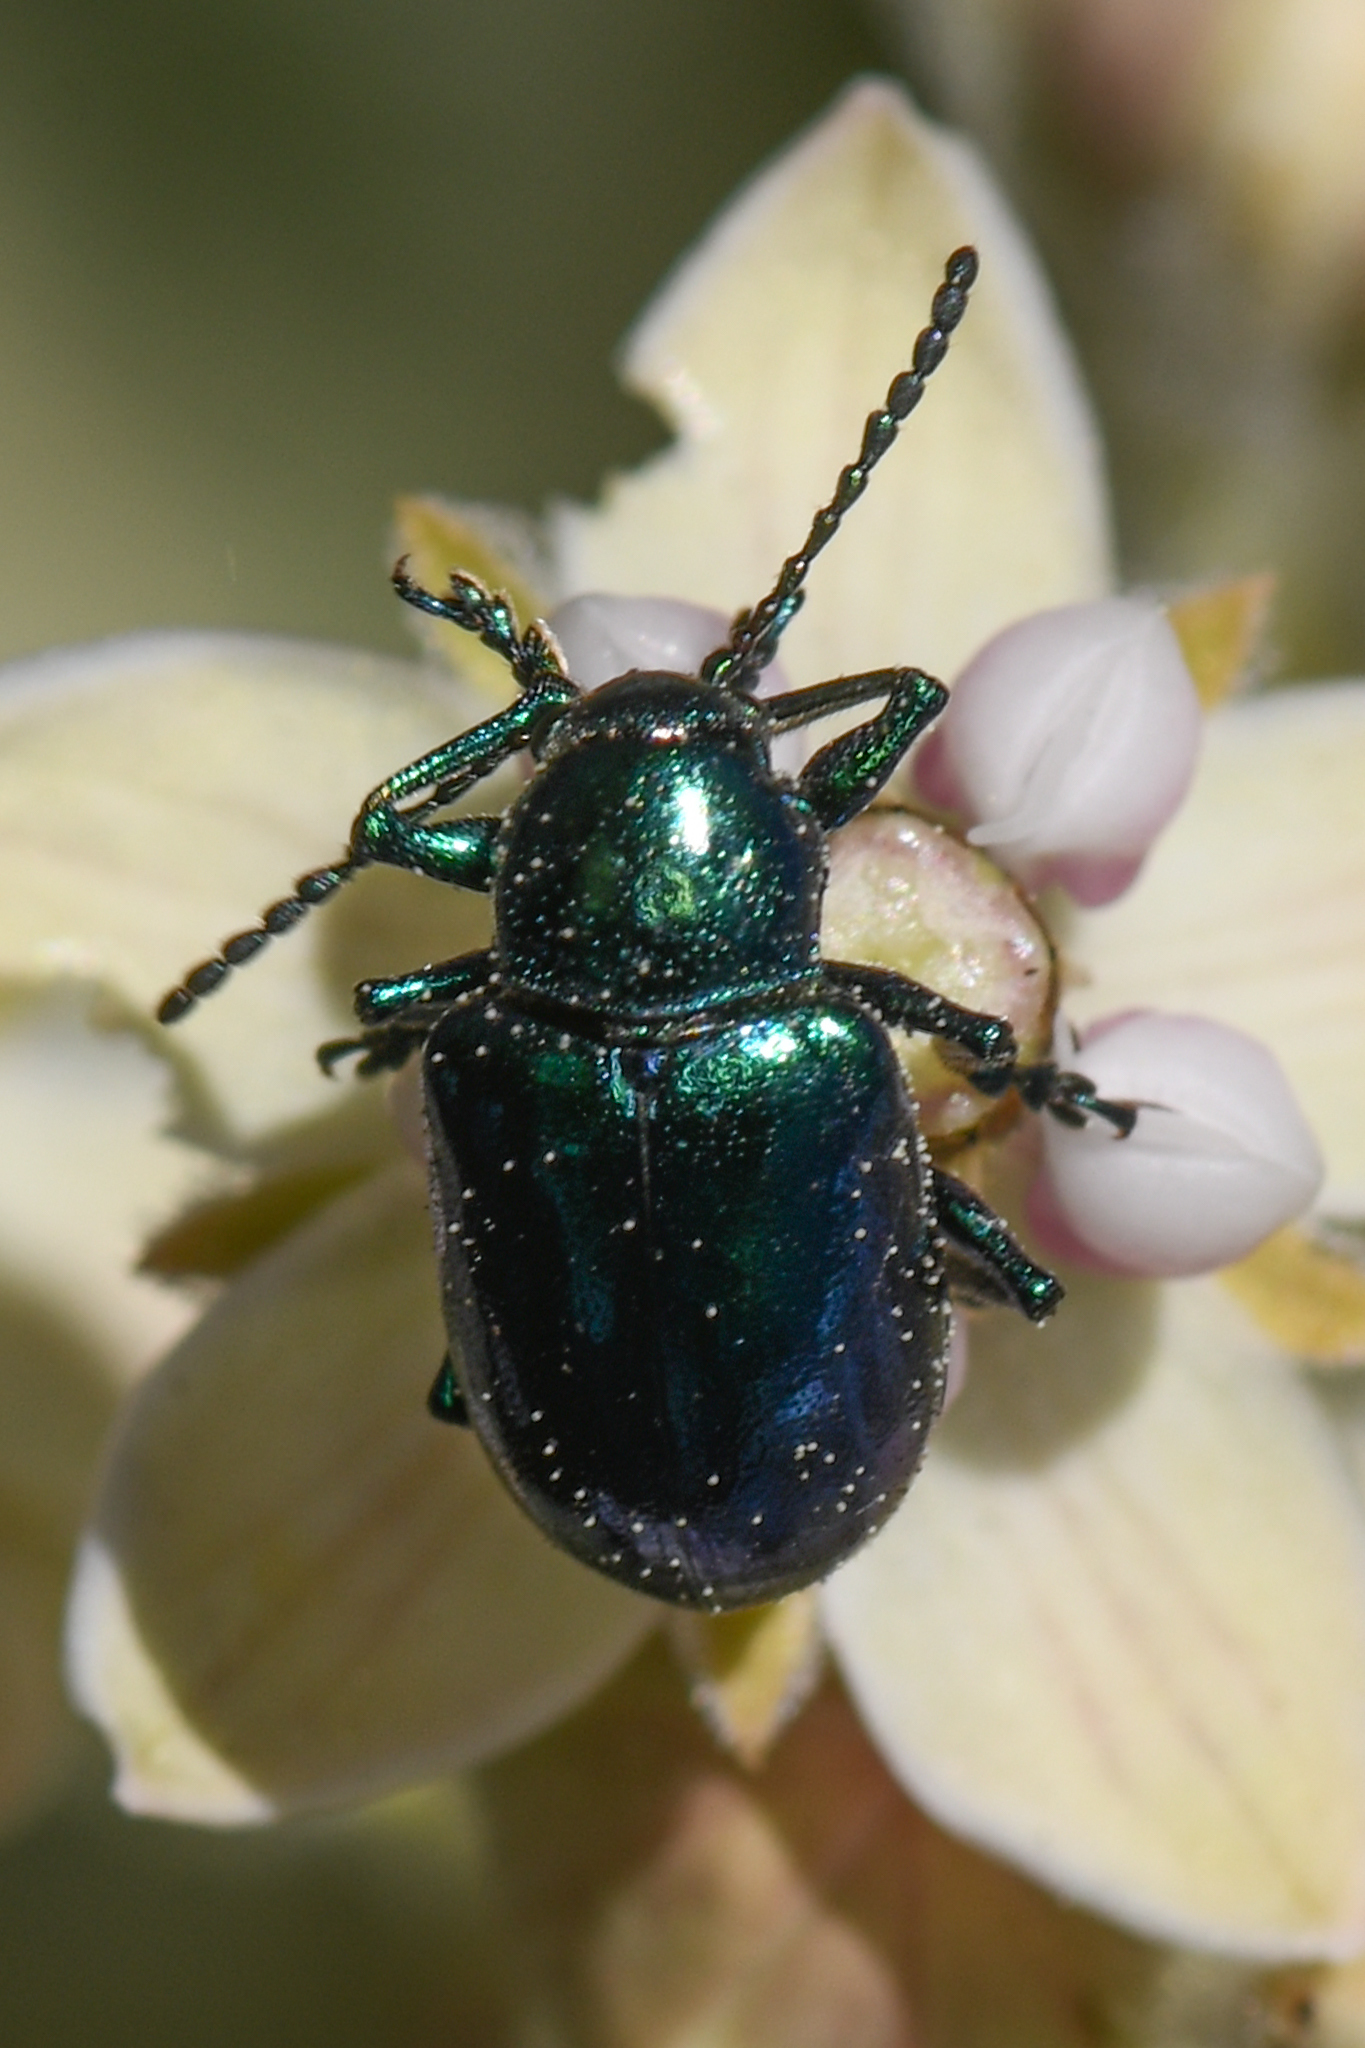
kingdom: Animalia
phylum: Arthropoda
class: Insecta
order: Coleoptera
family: Chrysomelidae
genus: Chrysochus
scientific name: Chrysochus cobaltinus
